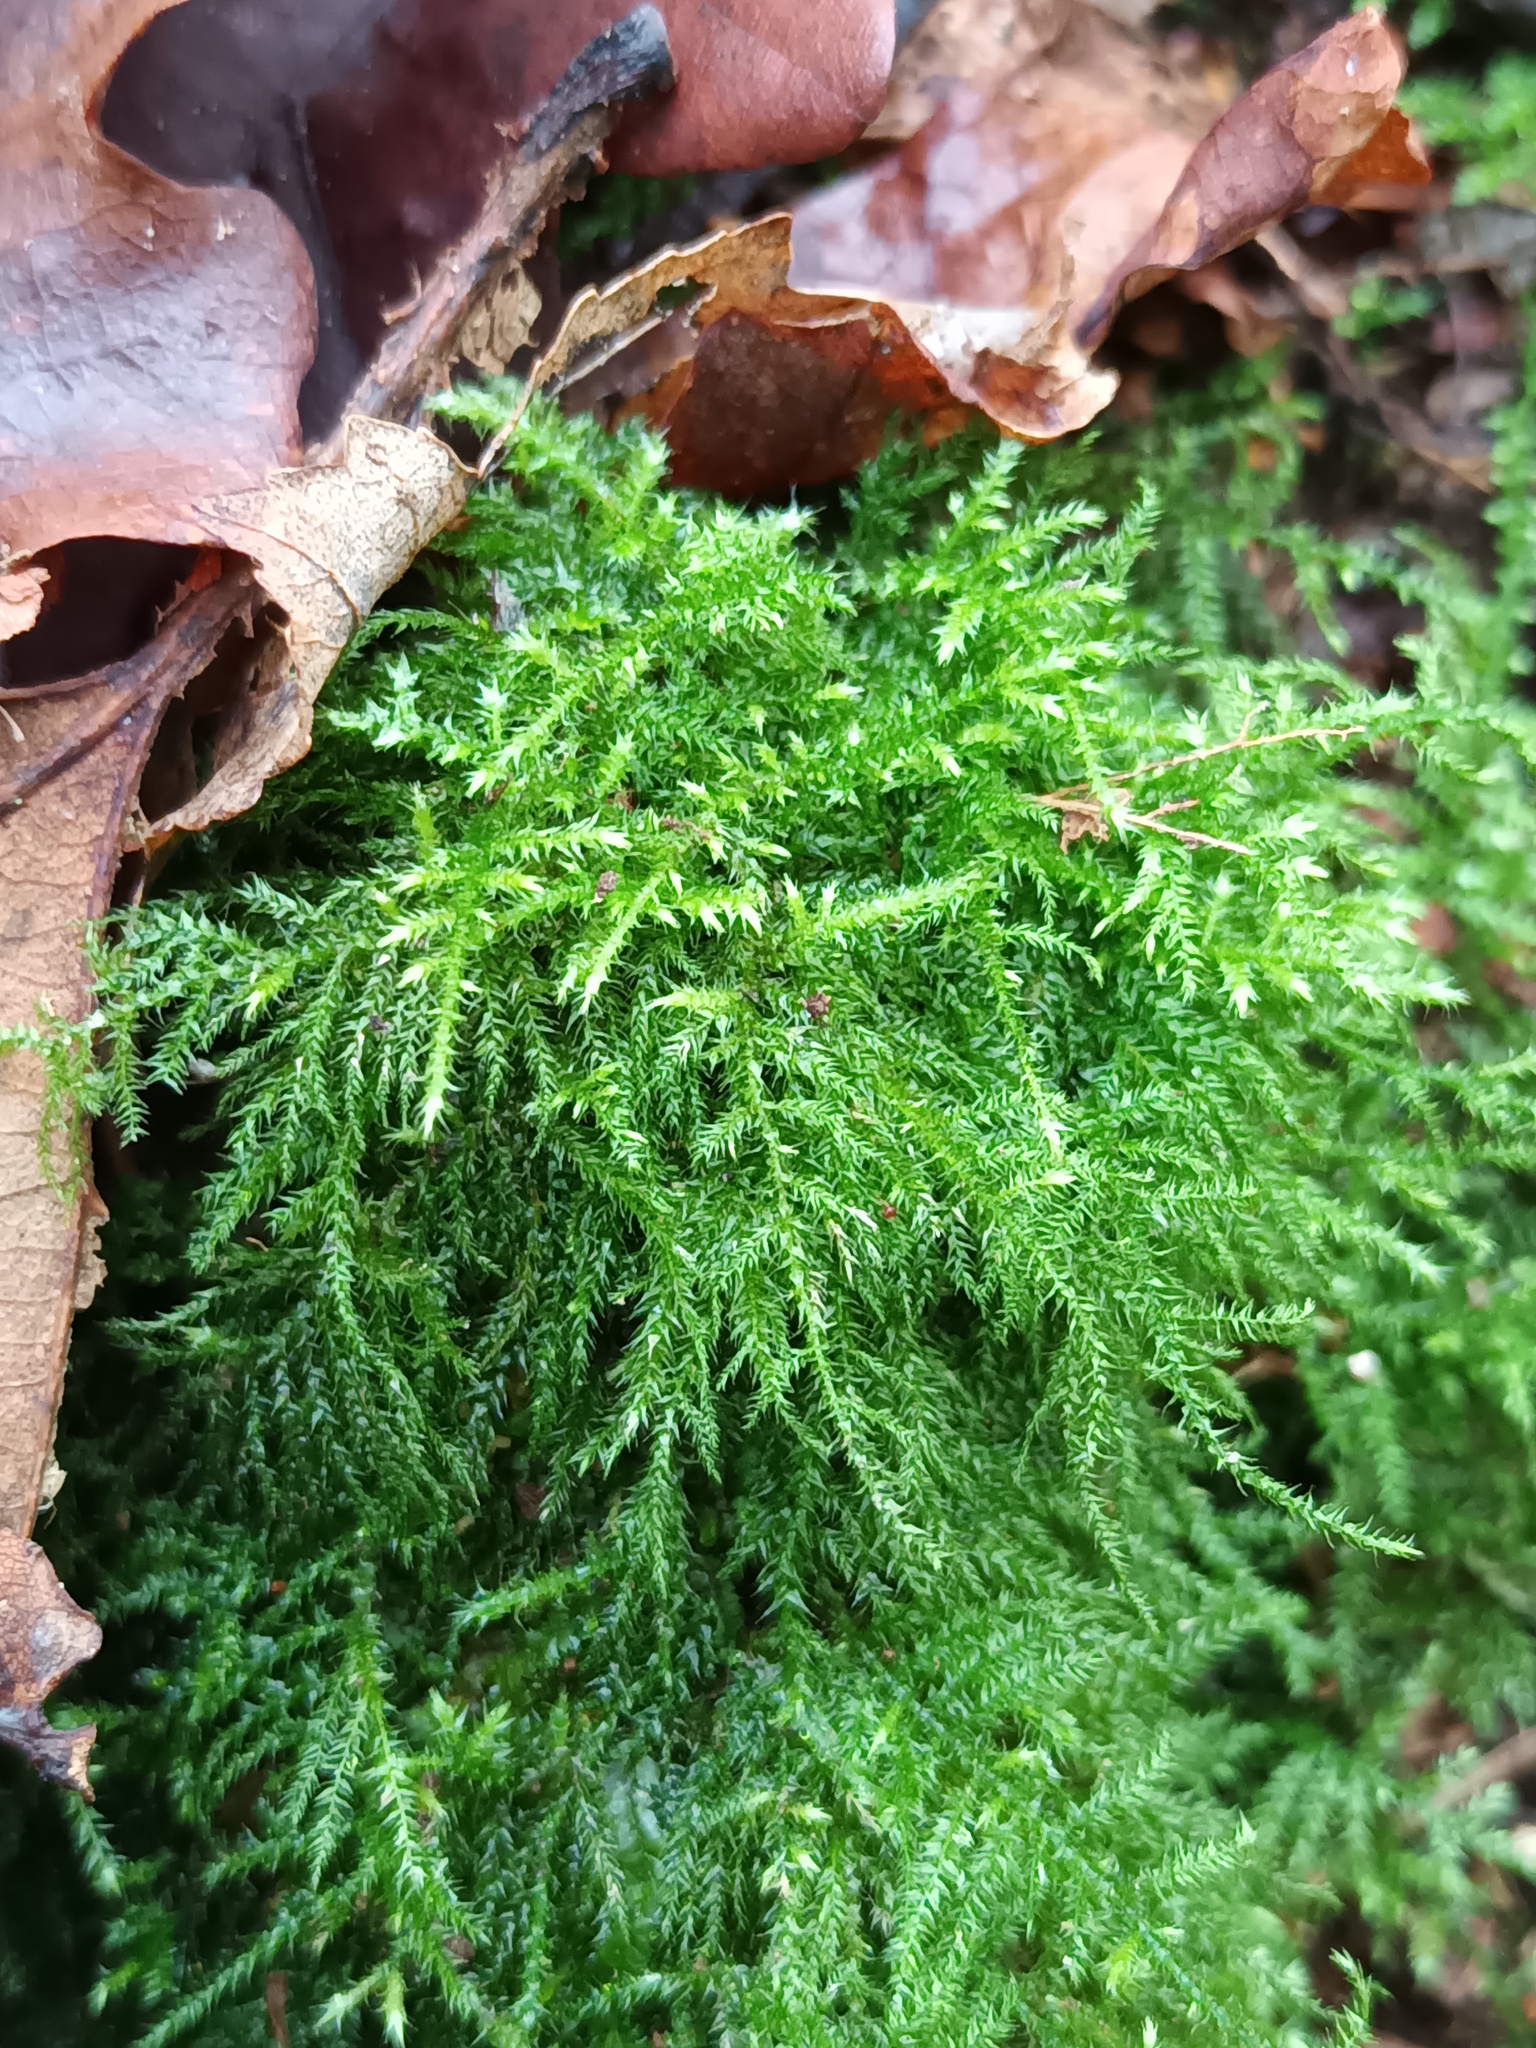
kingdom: Plantae
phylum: Bryophyta
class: Bryopsida
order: Hypnales
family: Brachytheciaceae
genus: Kindbergia
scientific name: Kindbergia praelonga
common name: Slender beaked moss
